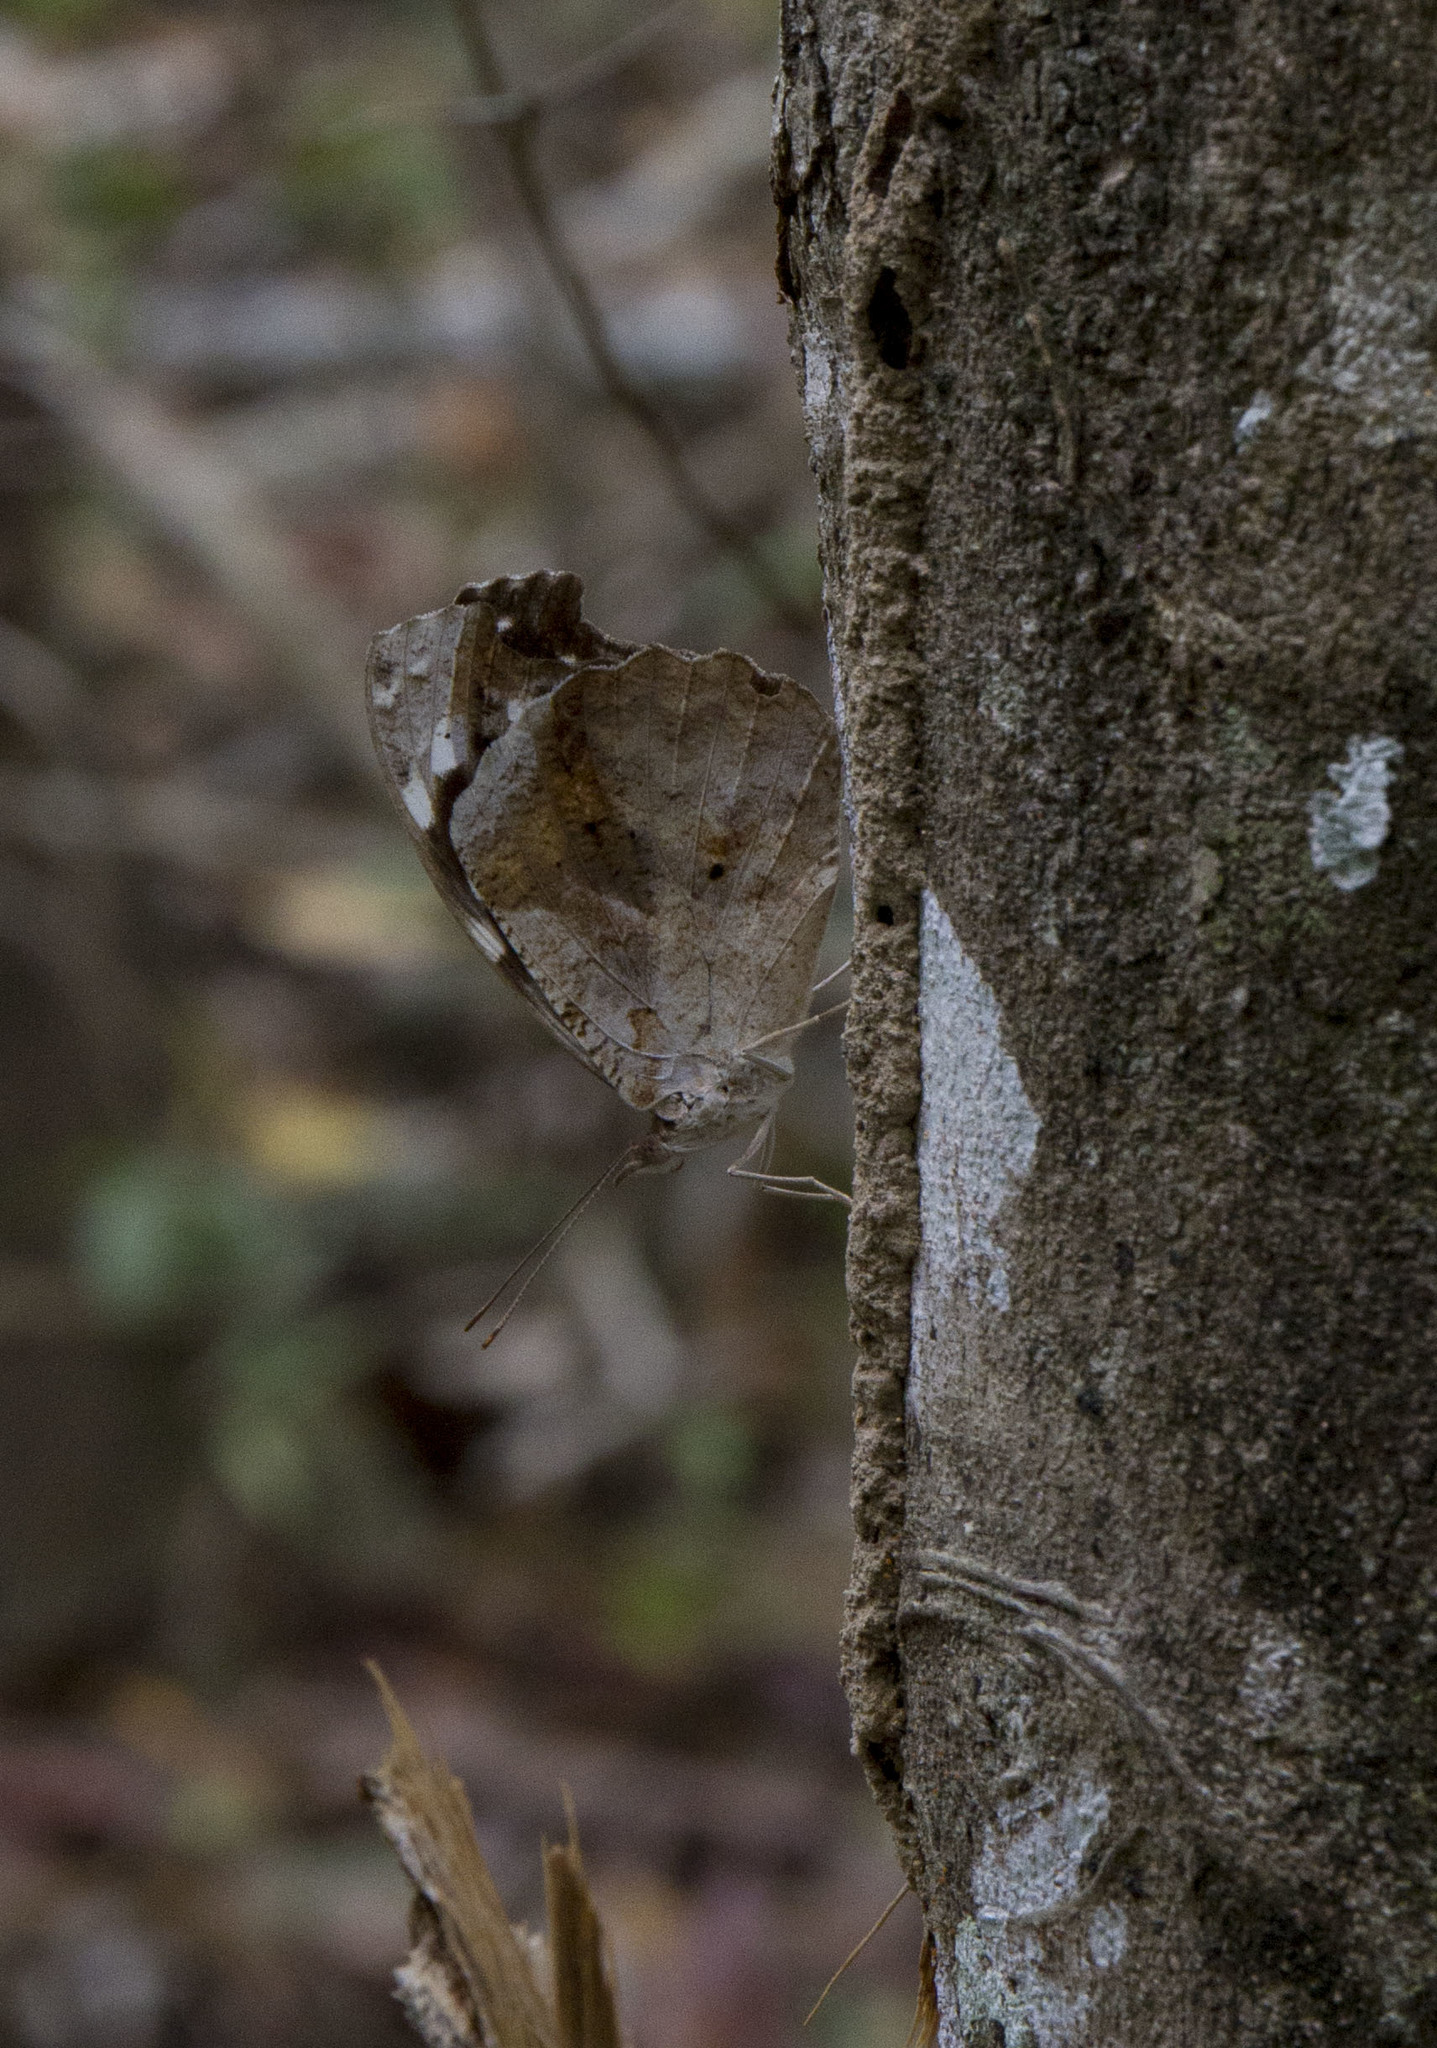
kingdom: Animalia
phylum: Arthropoda
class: Insecta
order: Lepidoptera
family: Nymphalidae
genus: Myscelia
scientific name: Myscelia cyaniris
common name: Whitened bluewing
